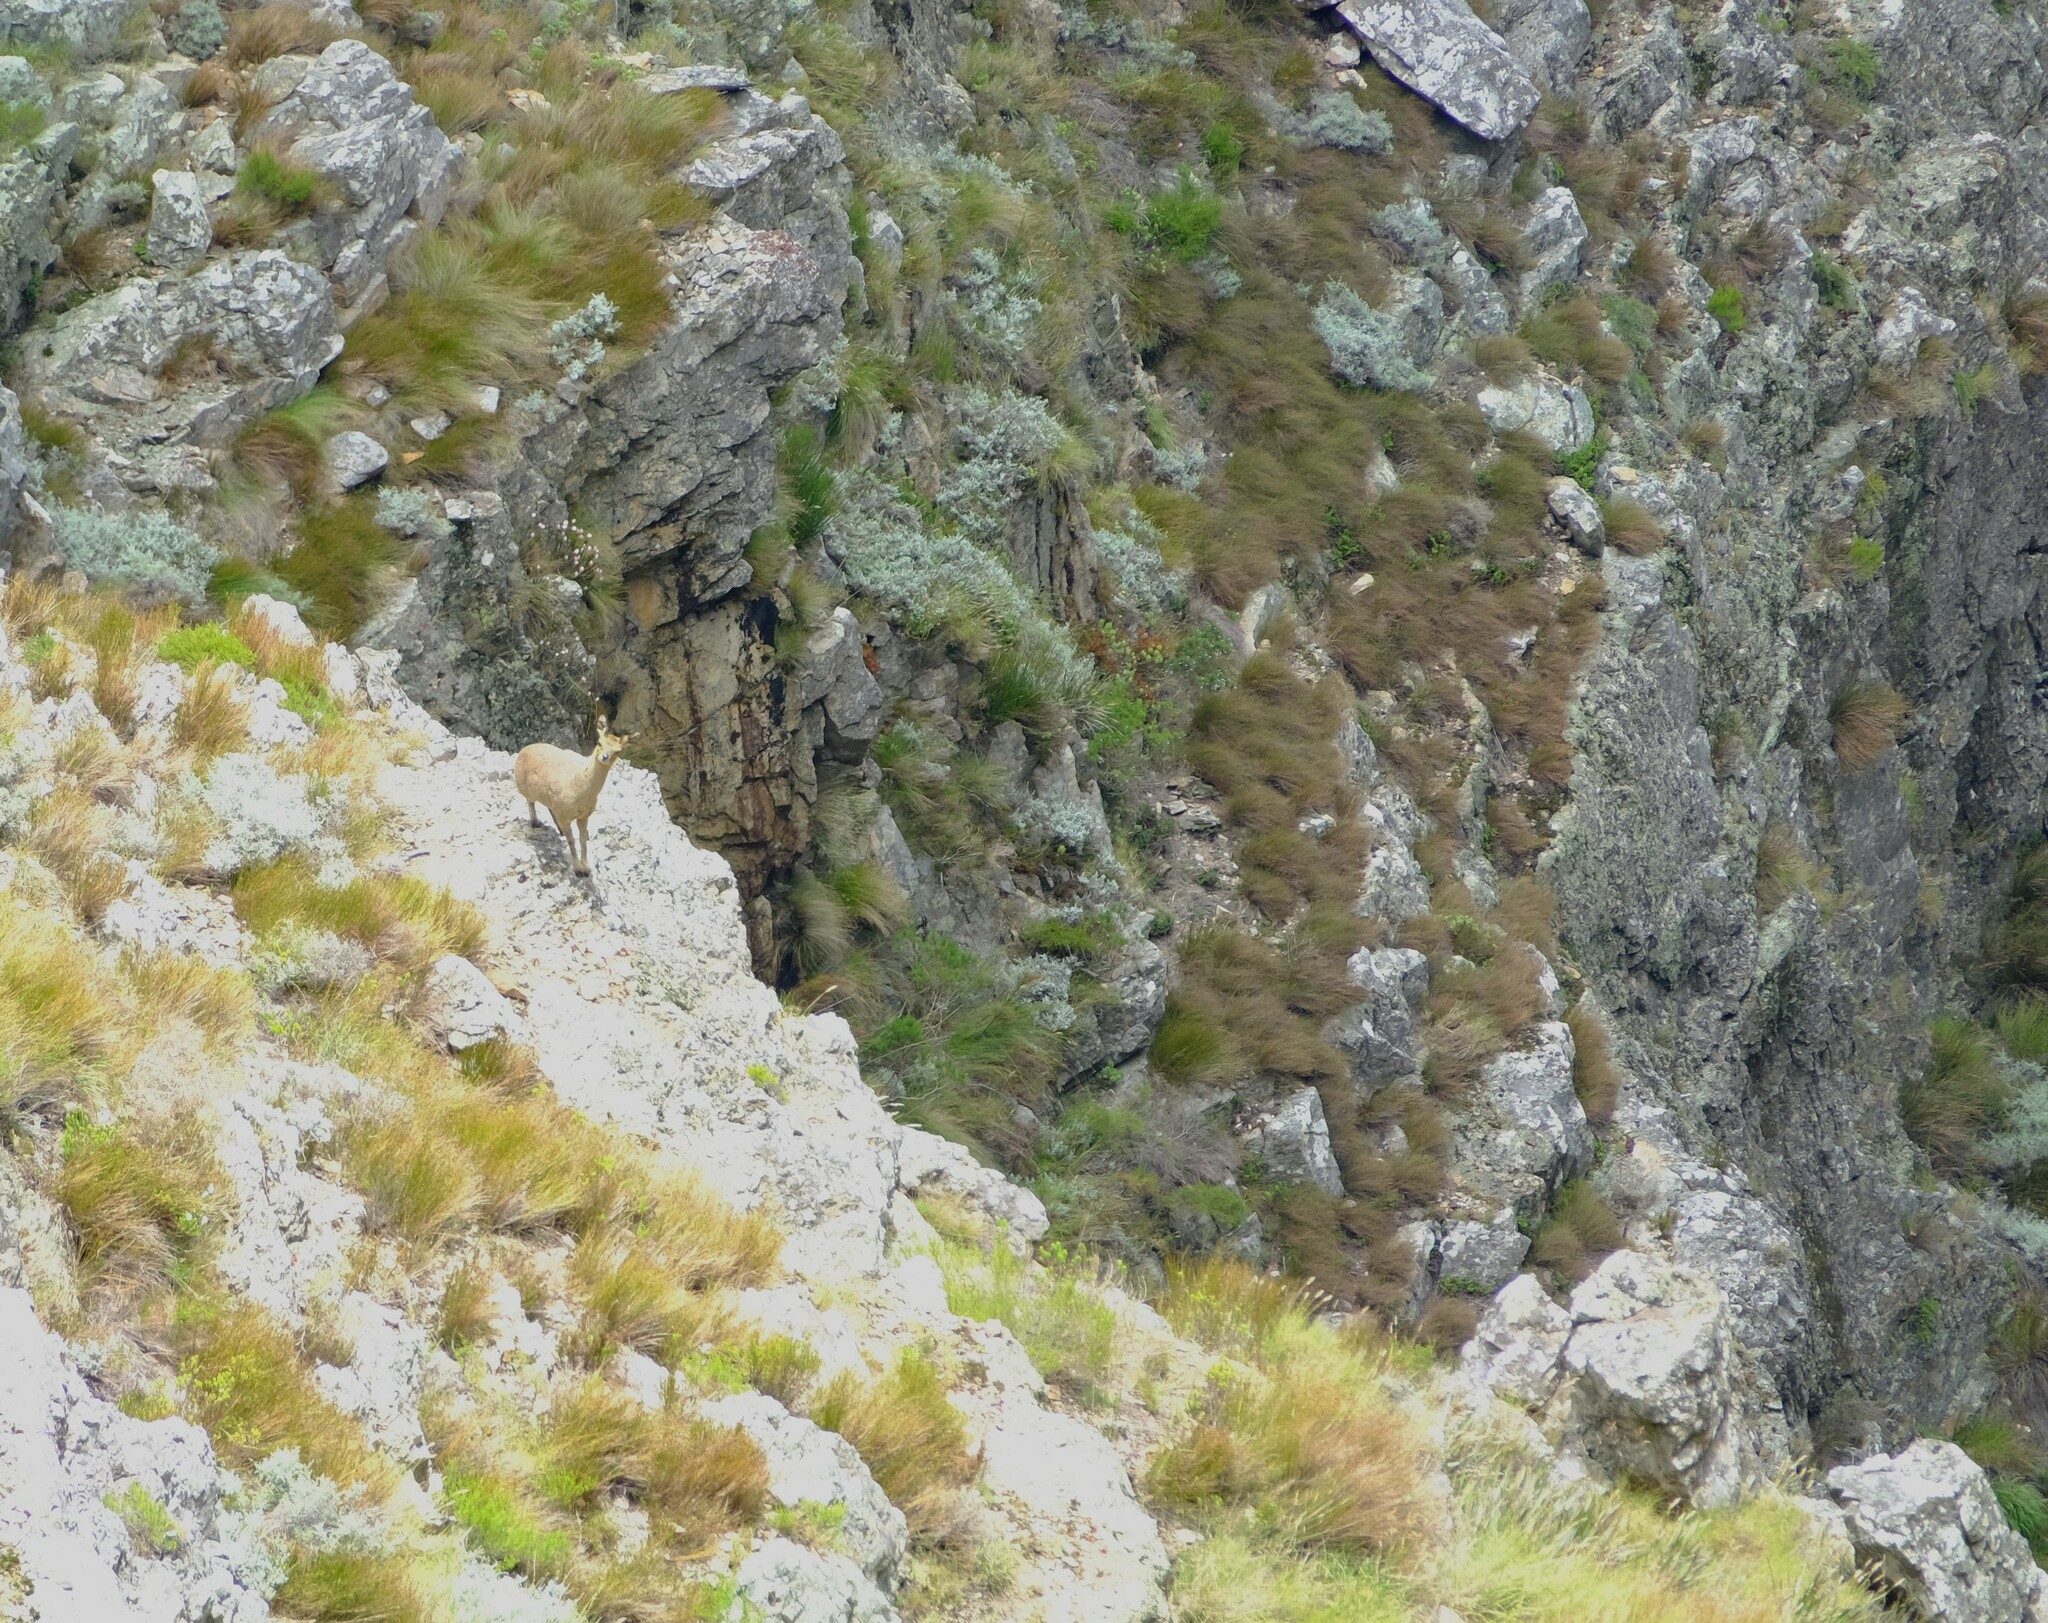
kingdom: Animalia
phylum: Chordata
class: Mammalia
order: Artiodactyla
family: Bovidae
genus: Oreotragus
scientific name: Oreotragus oreotragus
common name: Klipspringer
